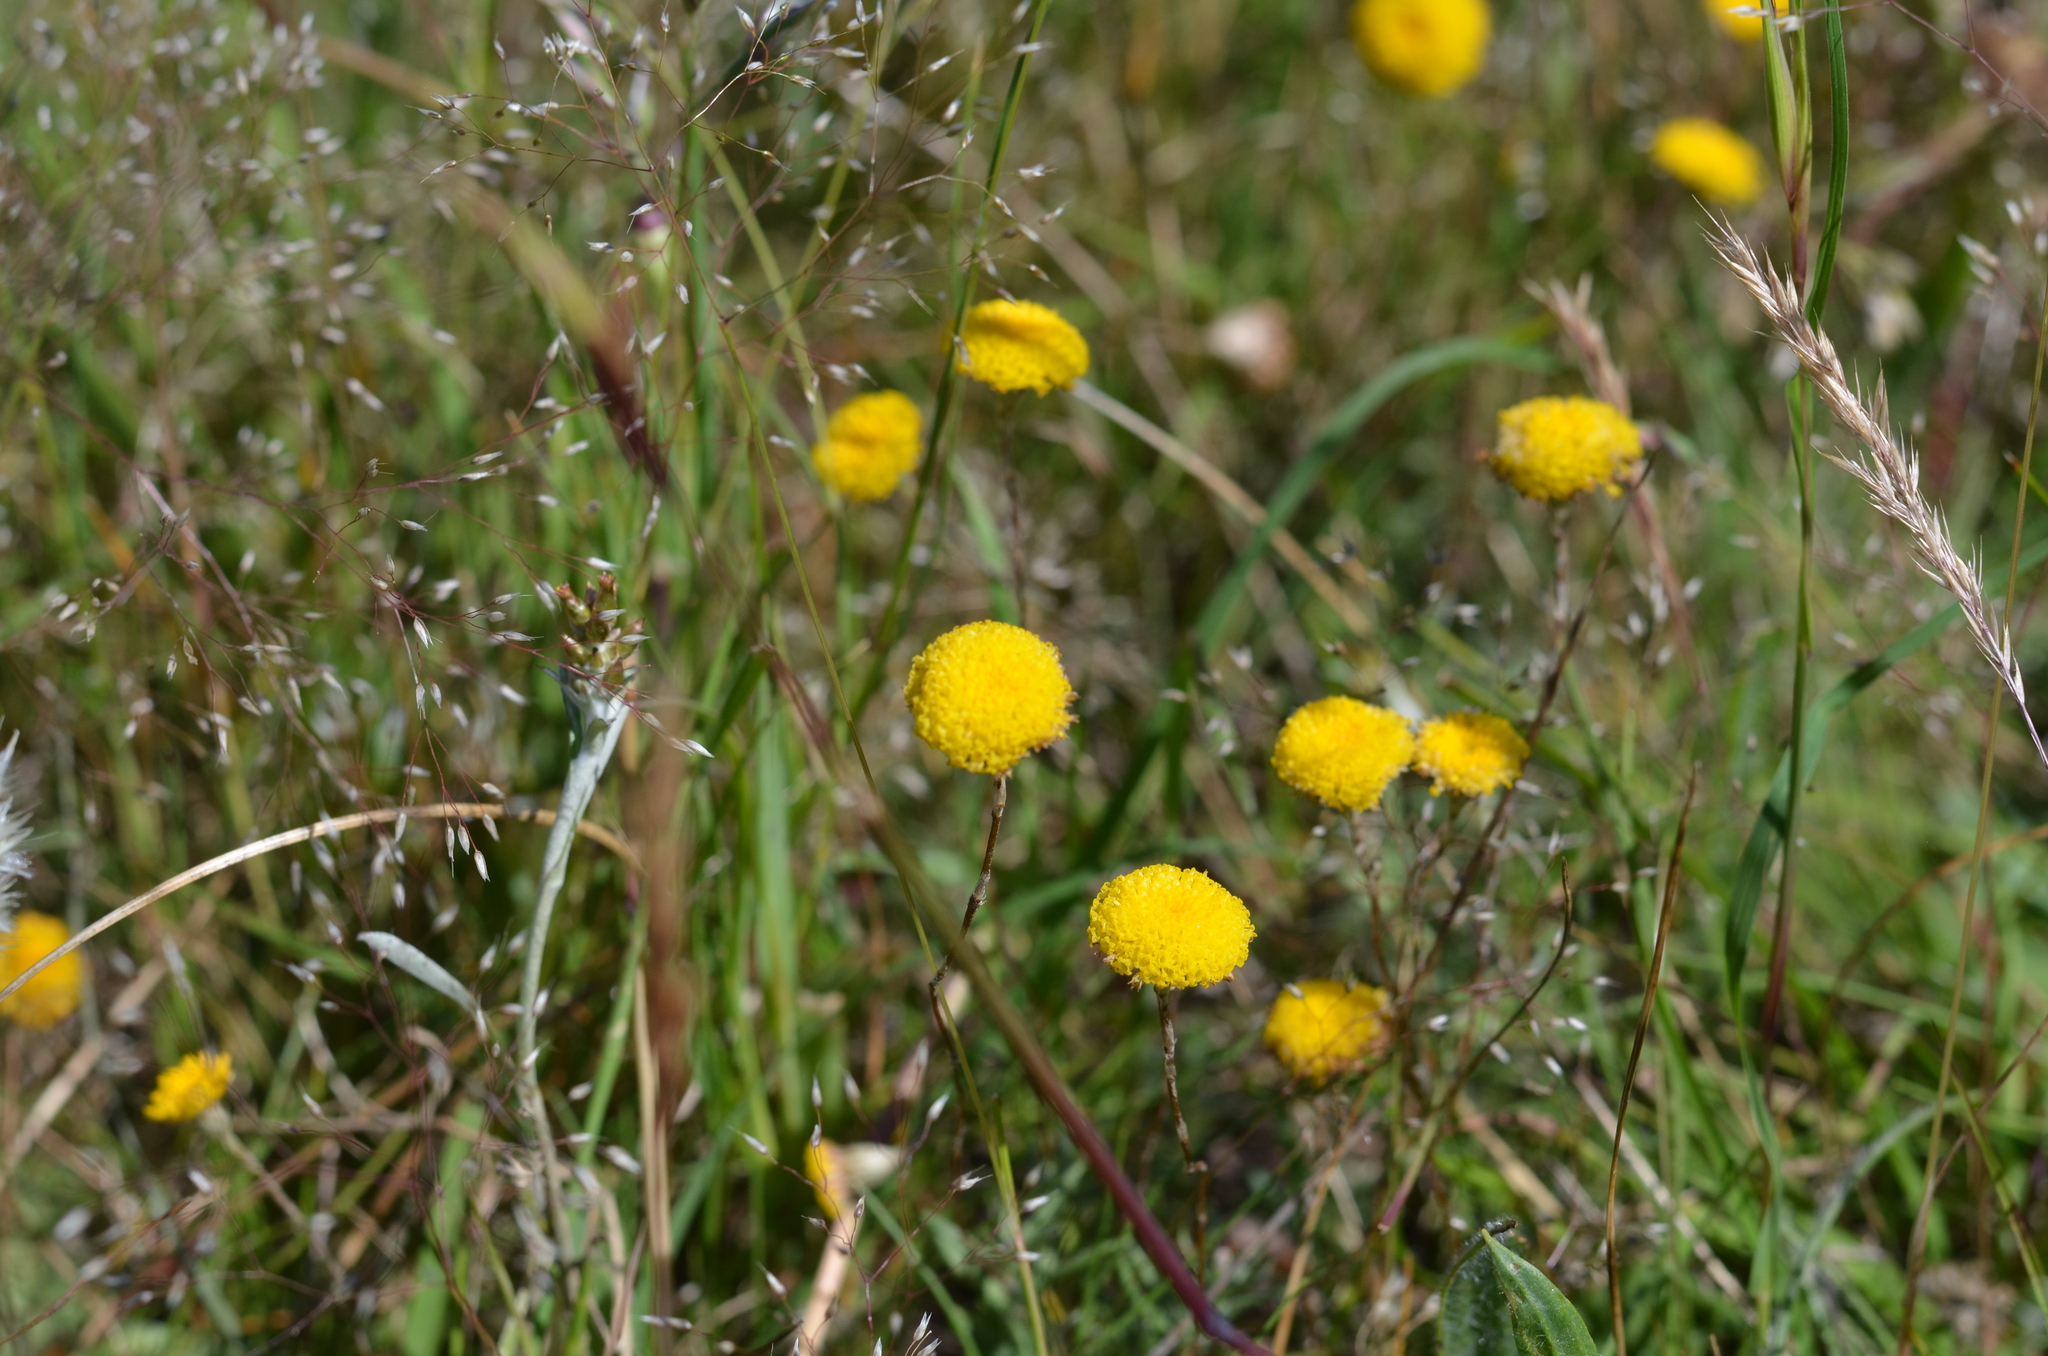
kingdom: Plantae
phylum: Tracheophyta
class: Magnoliopsida
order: Asterales
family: Asteraceae
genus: Leptorhynchos
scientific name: Leptorhynchos squamatus
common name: Scaly-buttons
